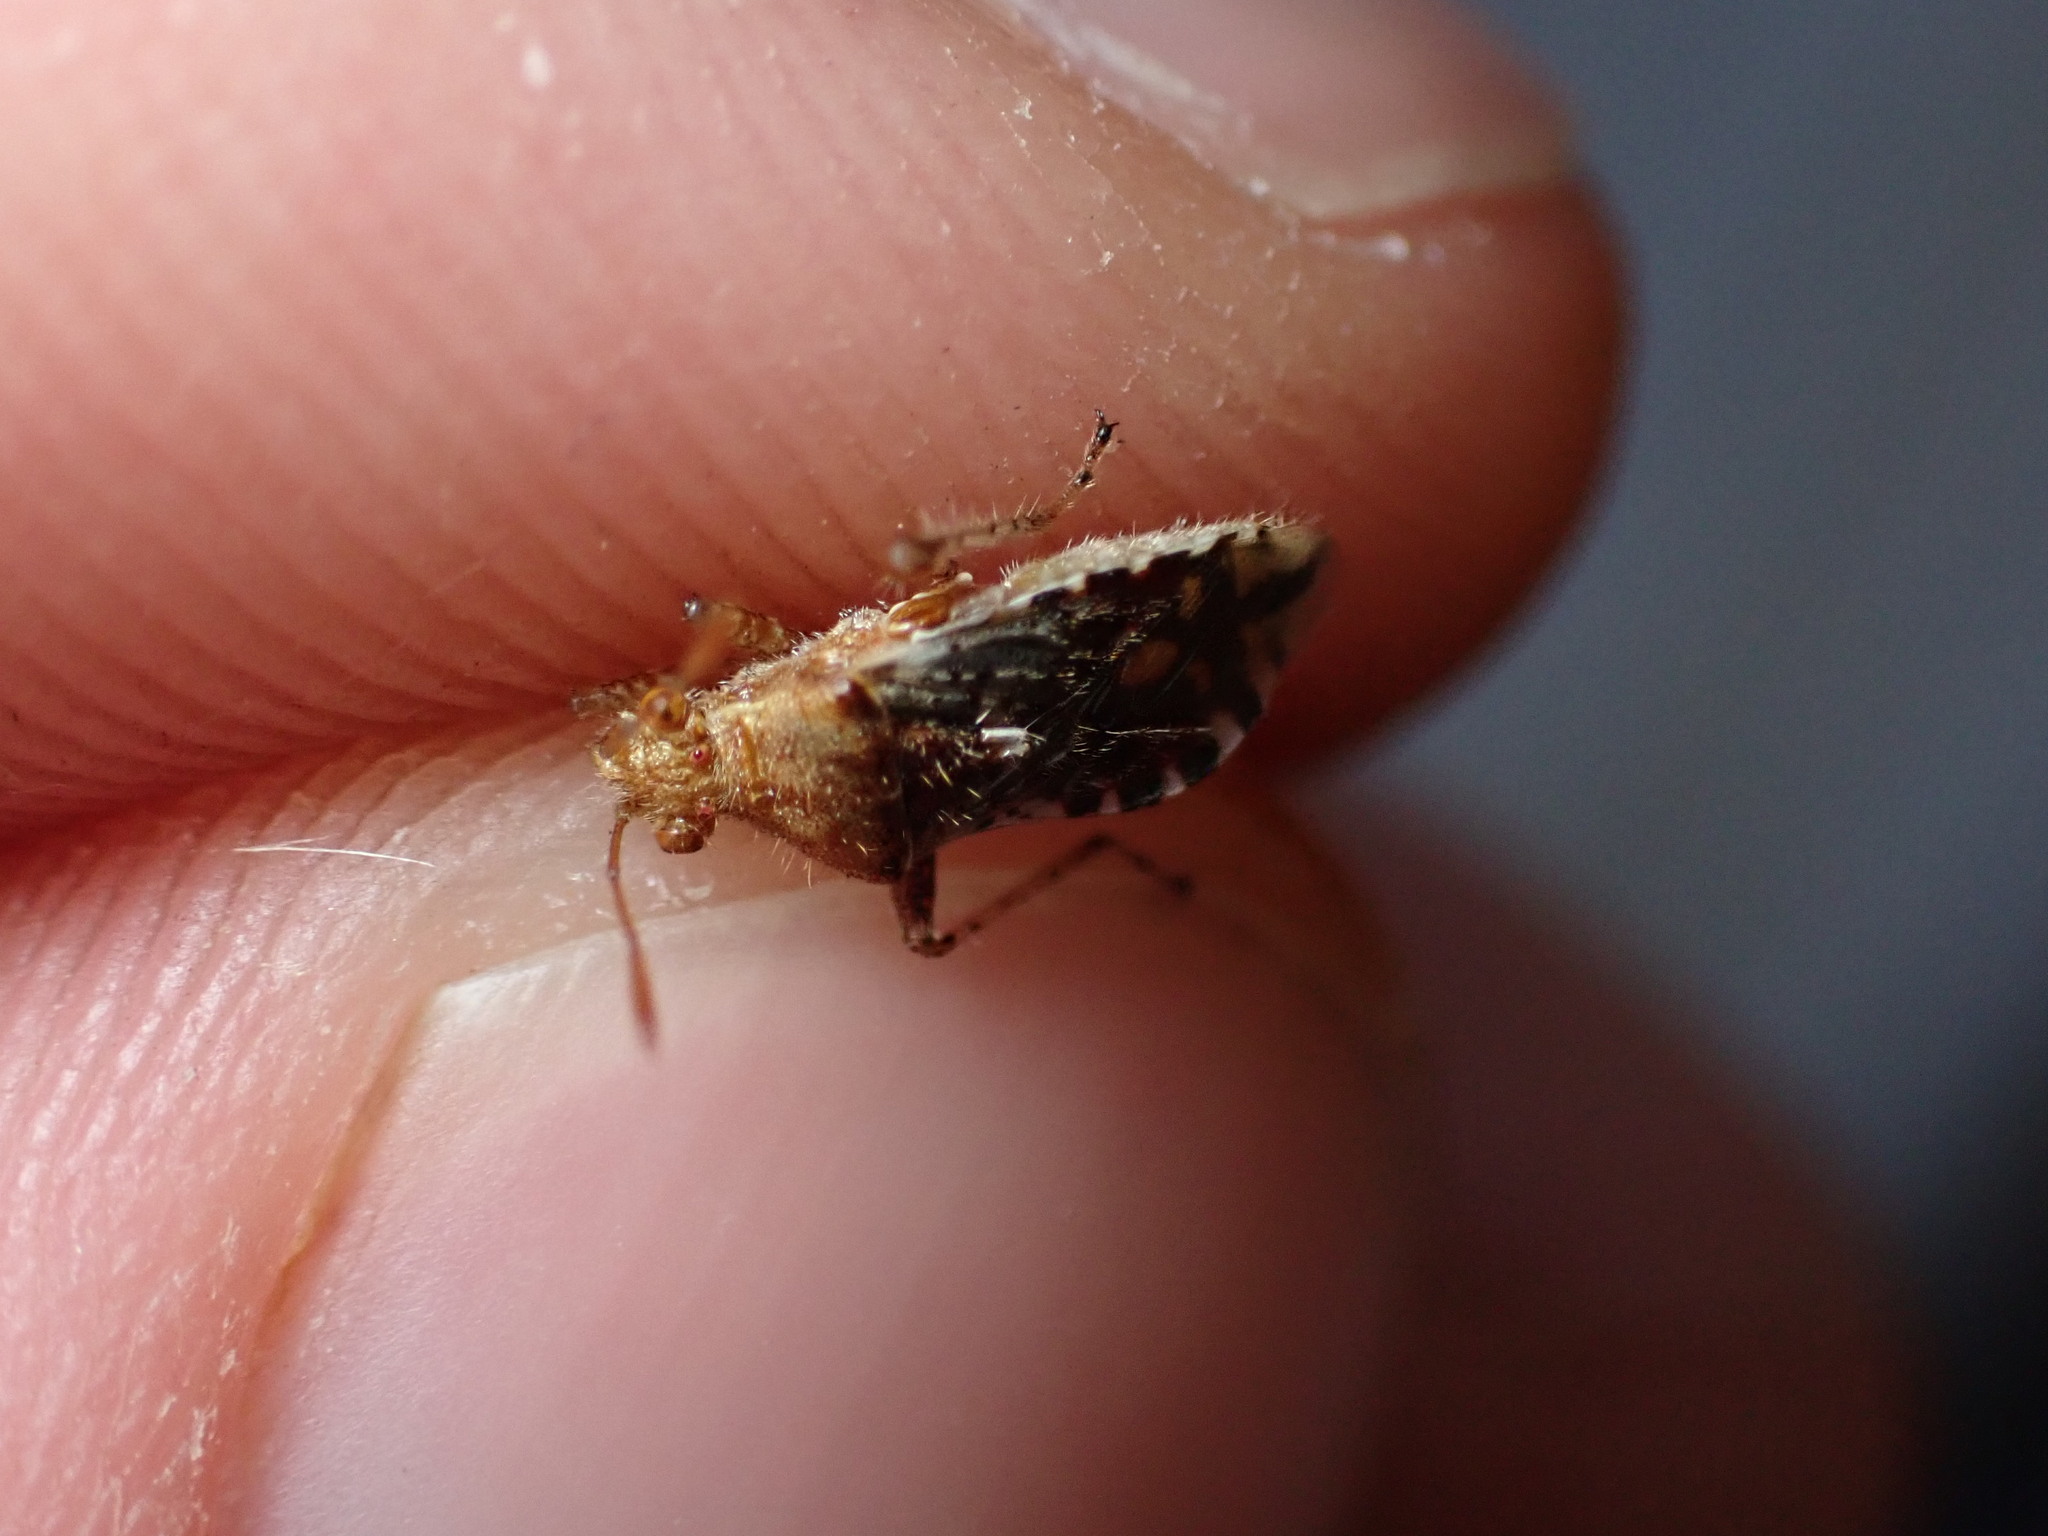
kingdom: Animalia
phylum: Arthropoda
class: Insecta
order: Hemiptera
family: Rhopalidae
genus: Rhopalus
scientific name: Rhopalus subrufus
